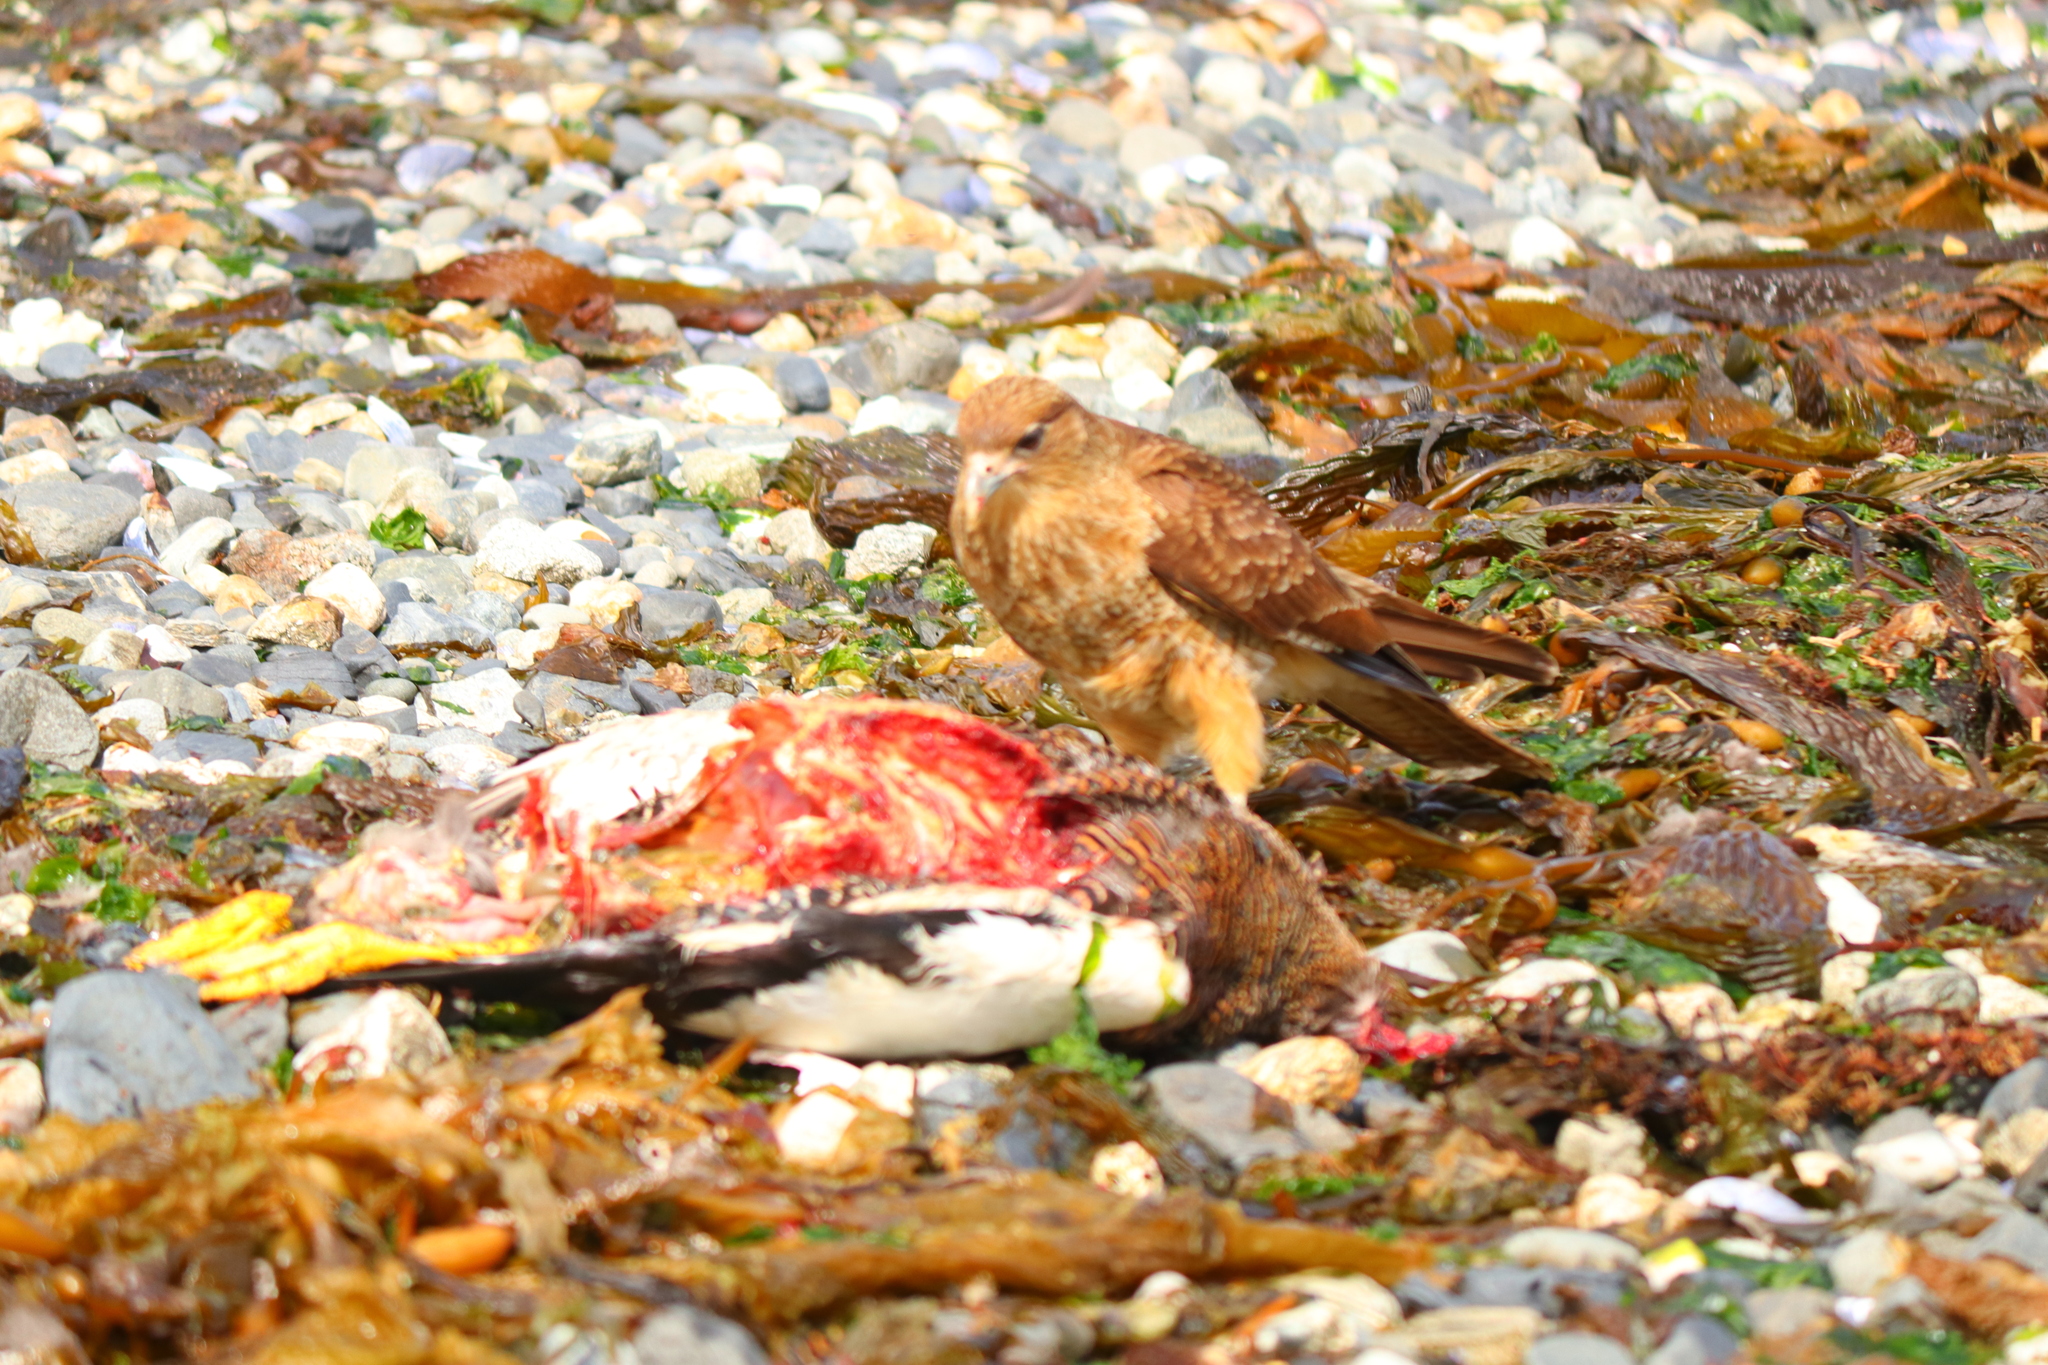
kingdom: Animalia
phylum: Chordata
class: Aves
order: Falconiformes
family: Falconidae
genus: Daptrius
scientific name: Daptrius
